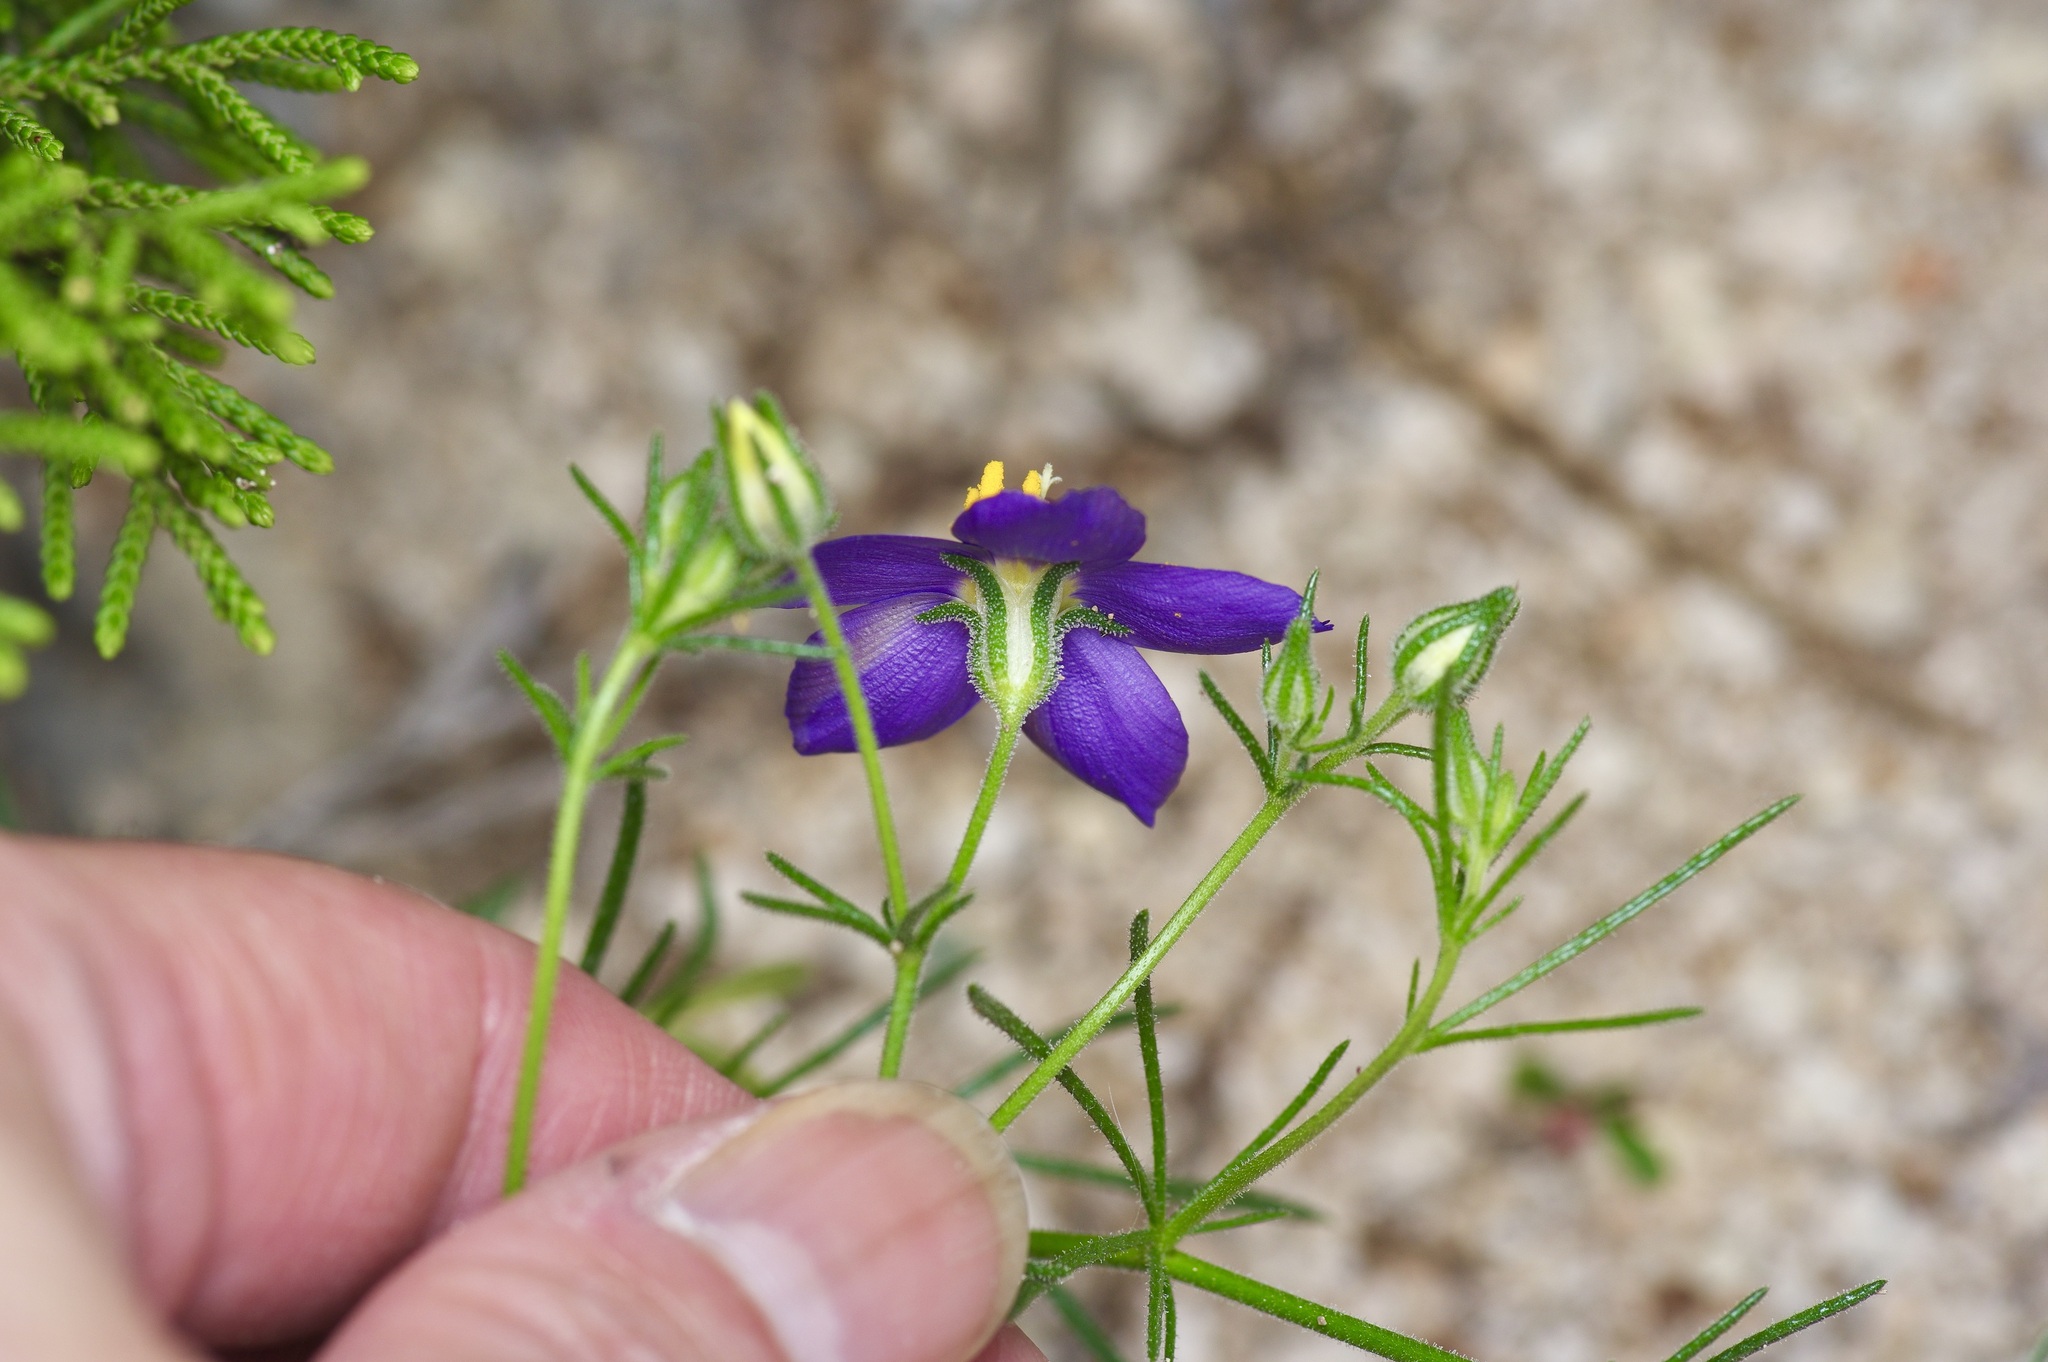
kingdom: Plantae
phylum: Tracheophyta
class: Magnoliopsida
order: Ericales
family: Polemoniaceae
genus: Giliastrum
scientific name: Giliastrum rigidulum
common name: Bluebowls
